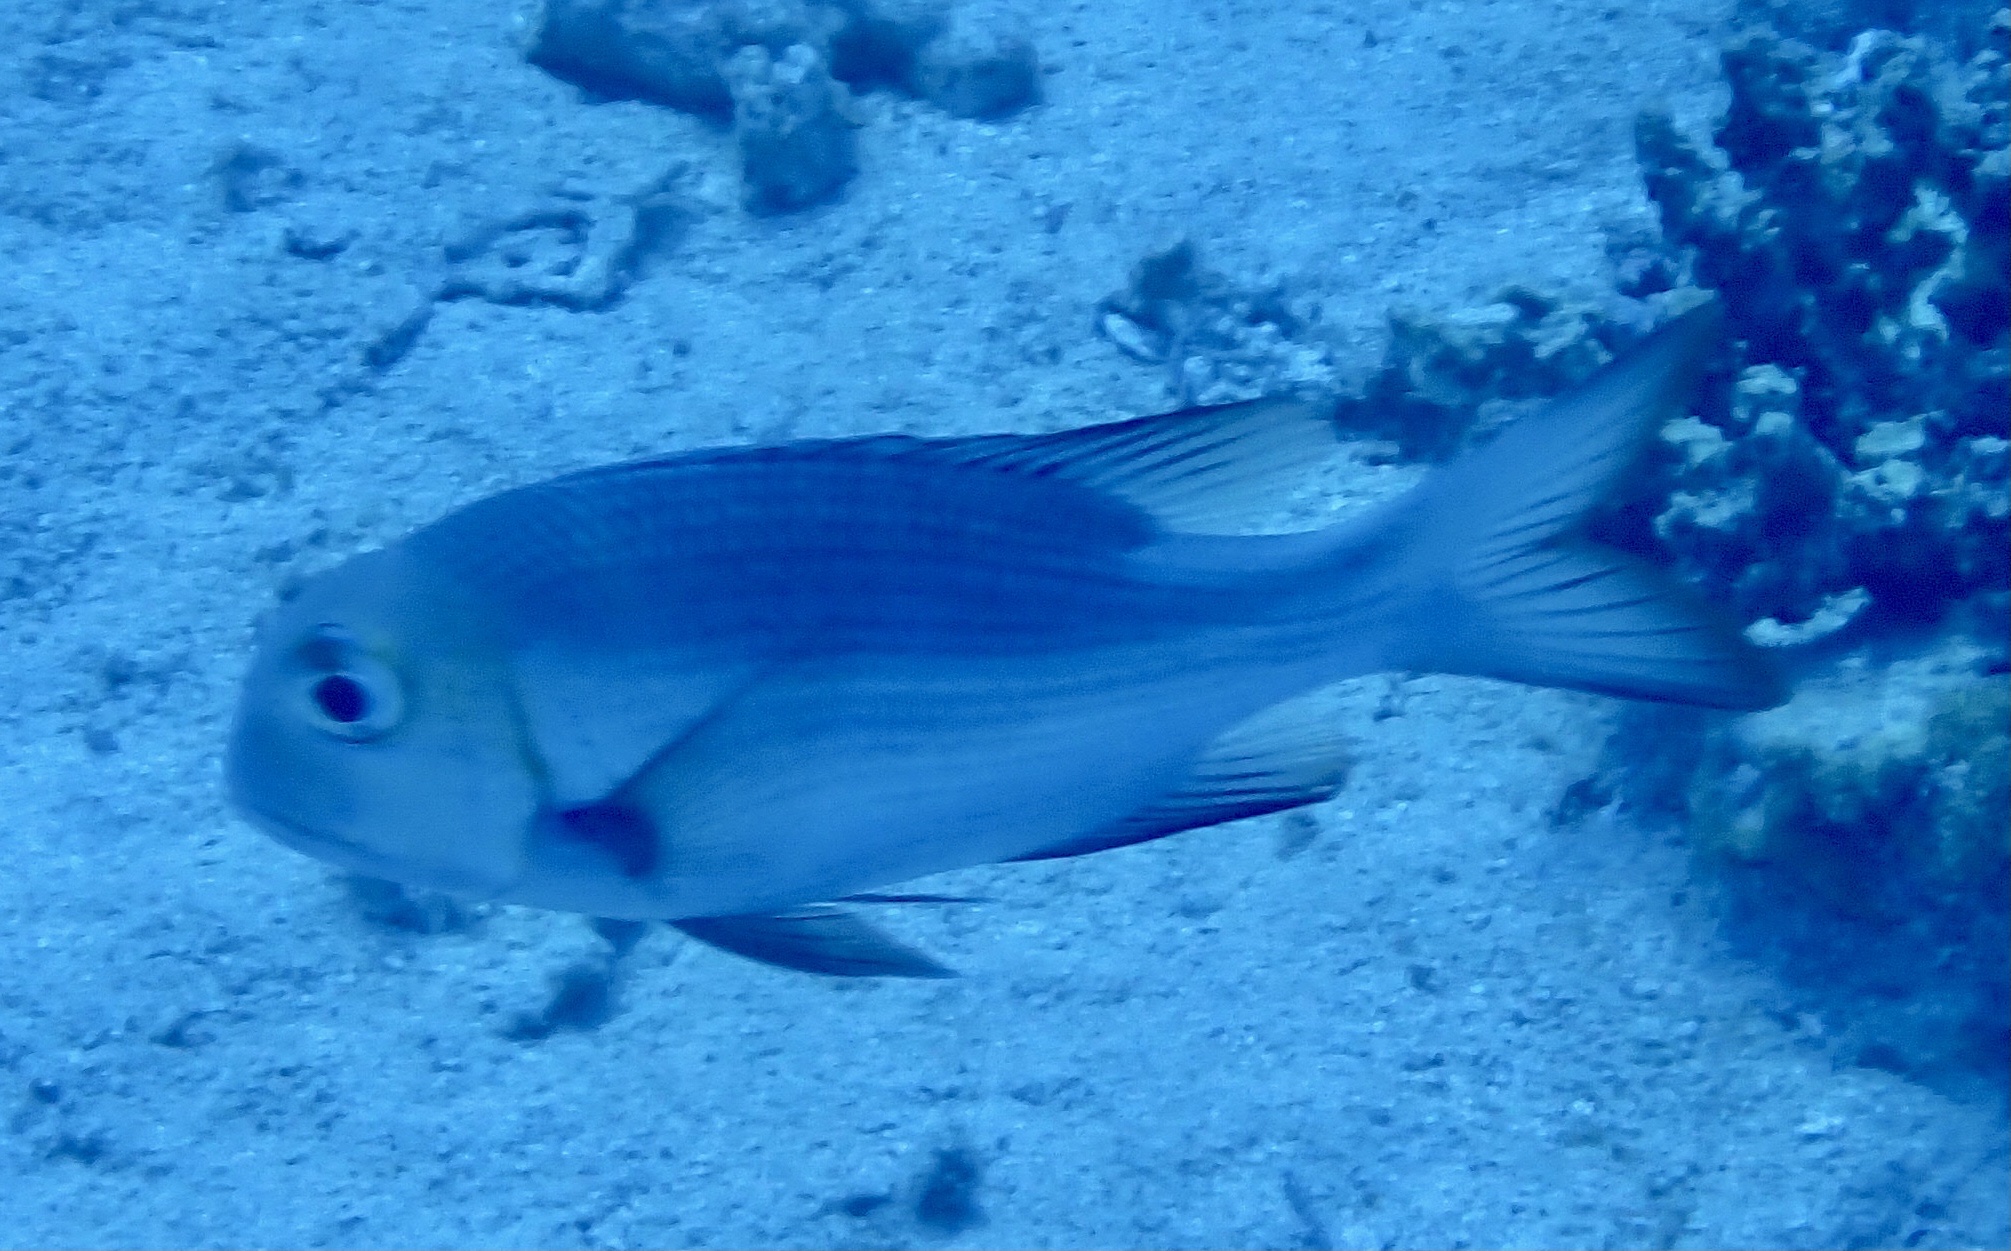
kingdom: Animalia
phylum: Chordata
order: Perciformes
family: Lethrinidae
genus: Monotaxis
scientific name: Monotaxis grandoculis
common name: Bigeye emperor
